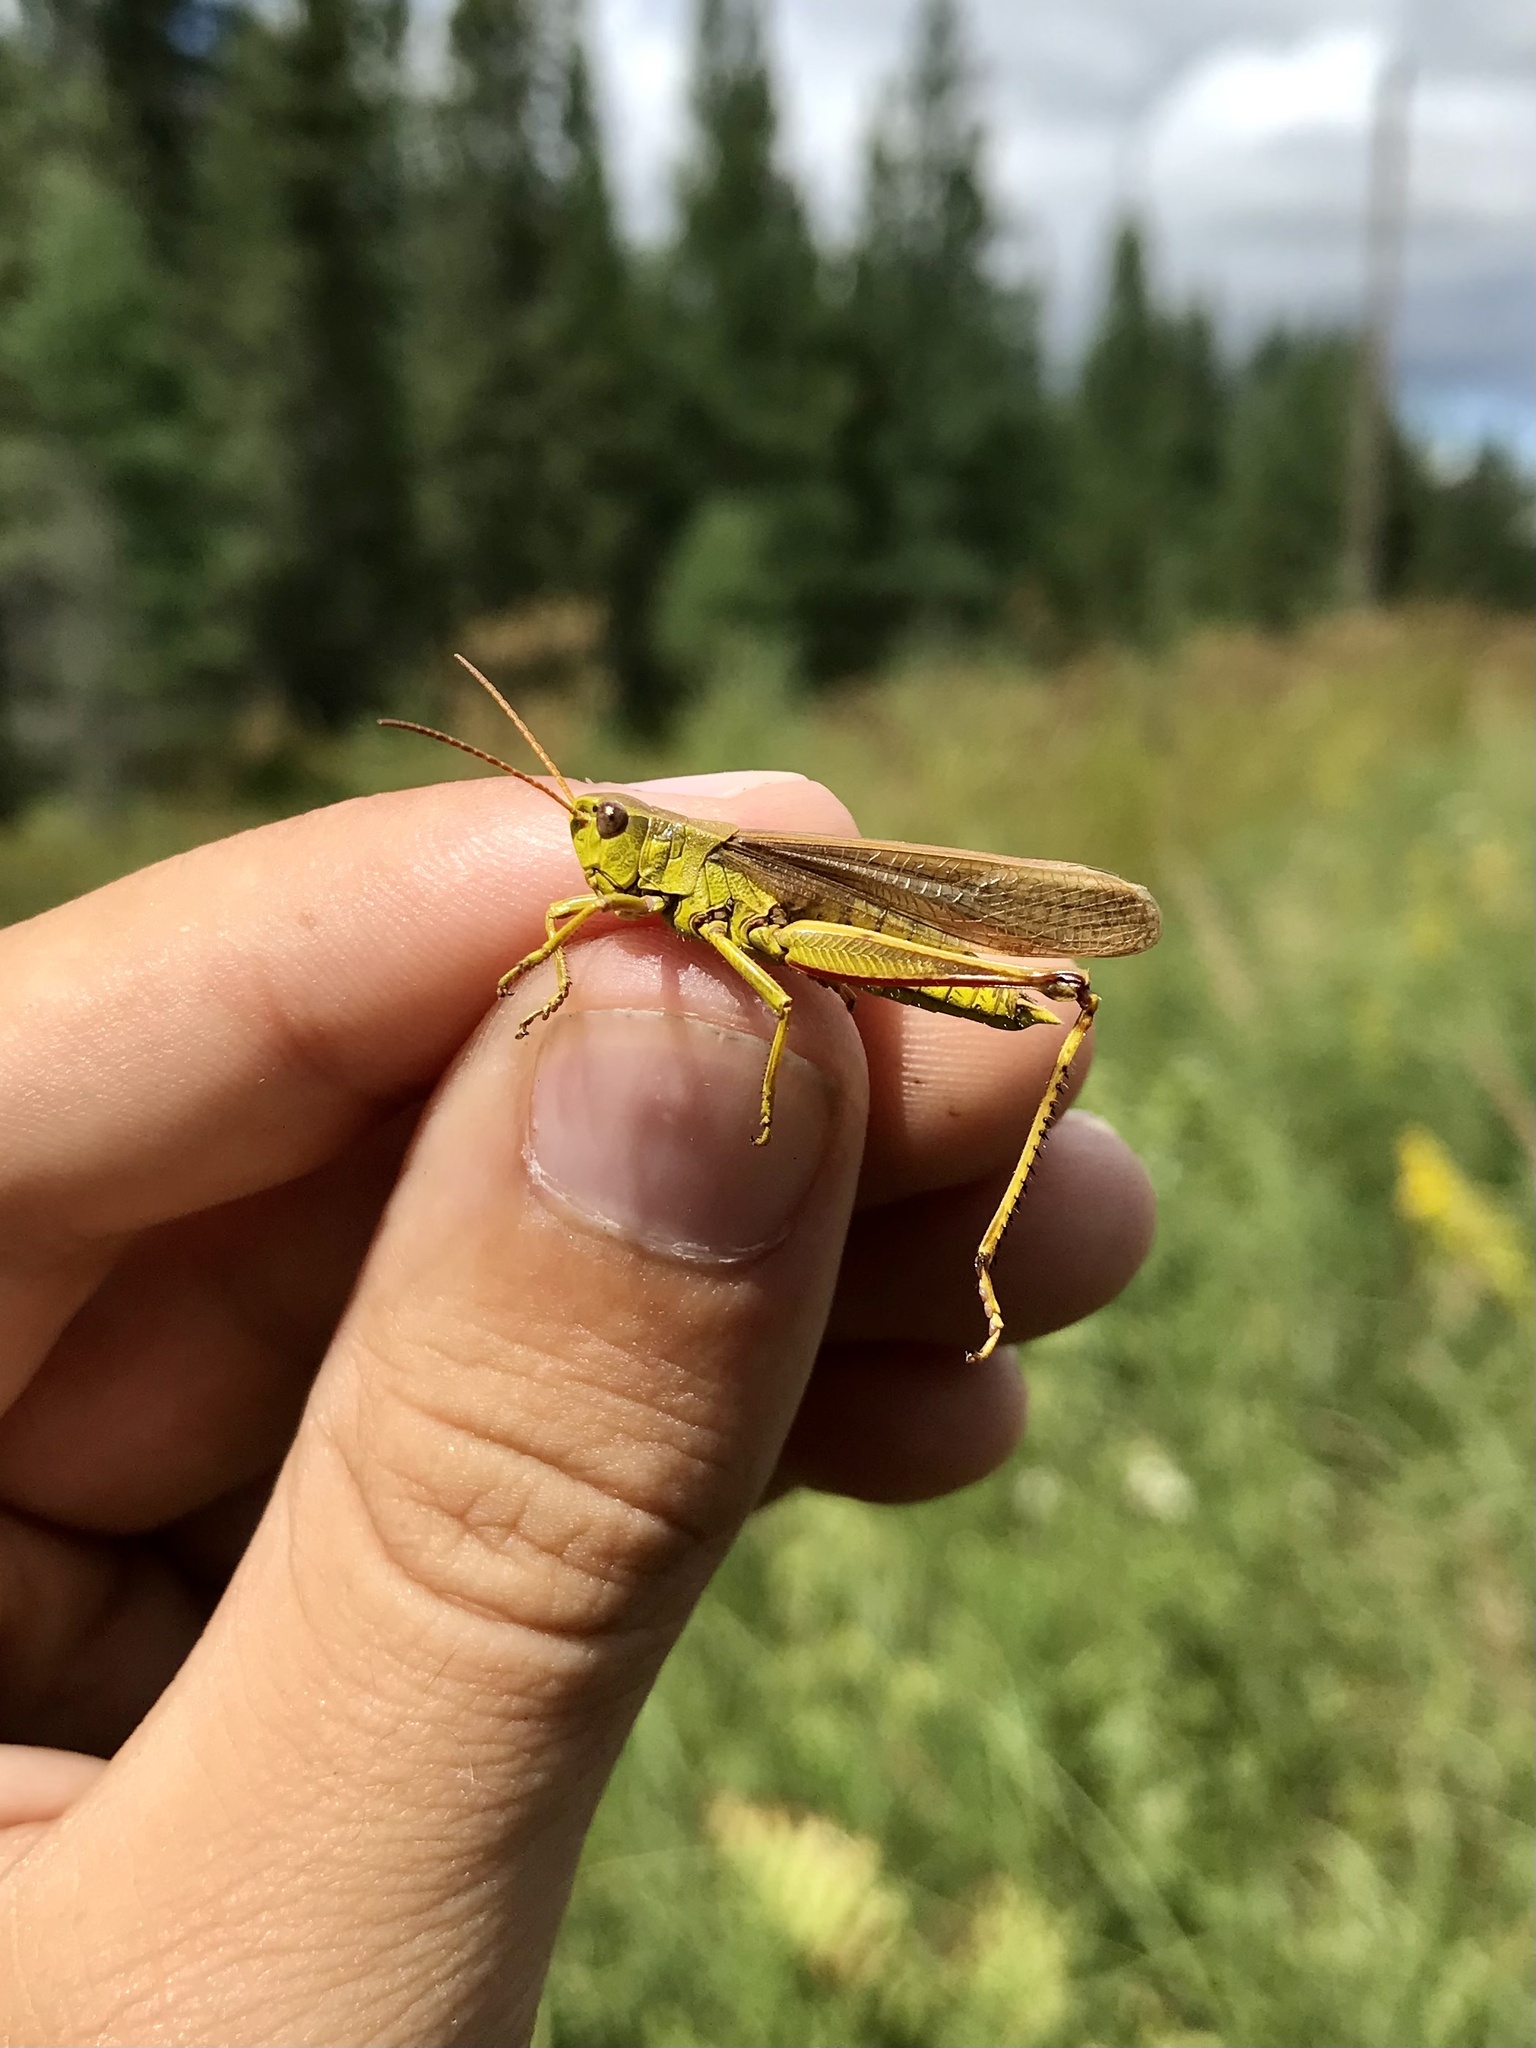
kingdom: Animalia
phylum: Arthropoda
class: Insecta
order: Orthoptera
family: Acrididae
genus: Stethophyma
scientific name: Stethophyma gracile
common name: Graceful sedge grasshopper
